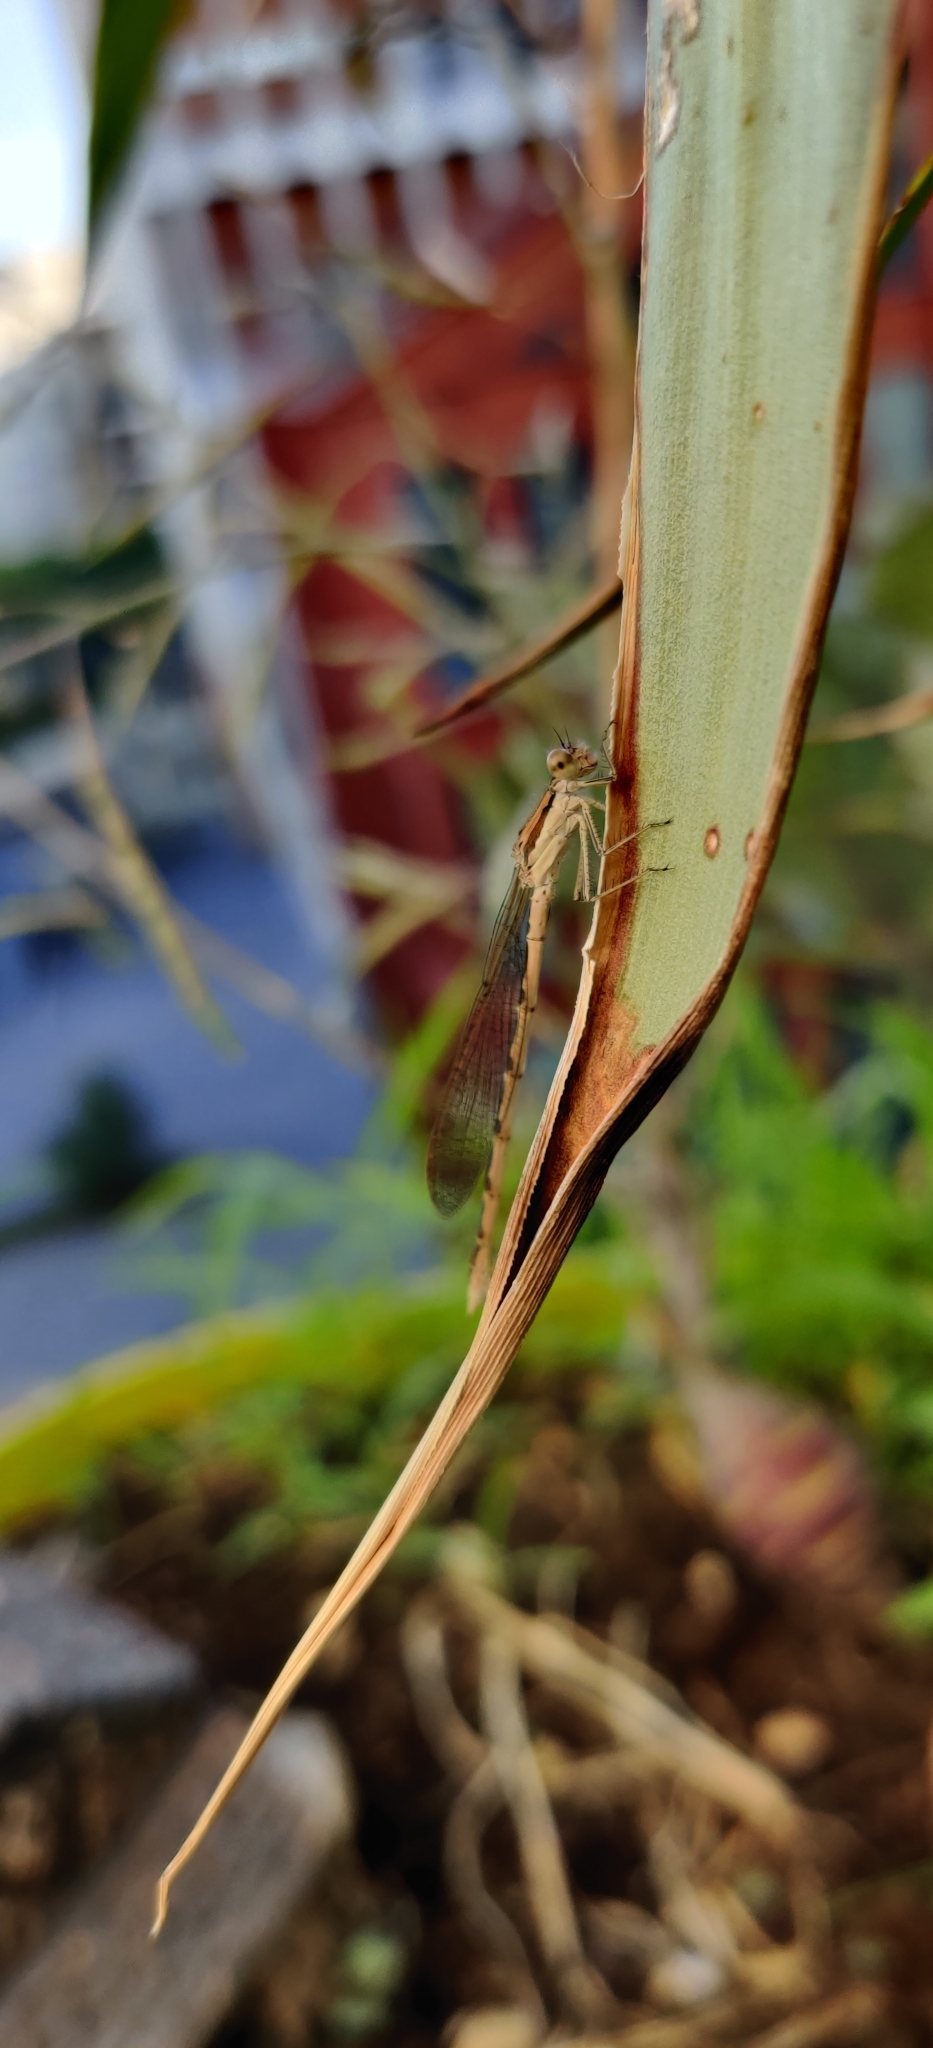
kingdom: Animalia
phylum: Arthropoda
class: Insecta
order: Odonata
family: Lestidae
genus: Sympecma
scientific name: Sympecma fusca
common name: Common winter damsel
